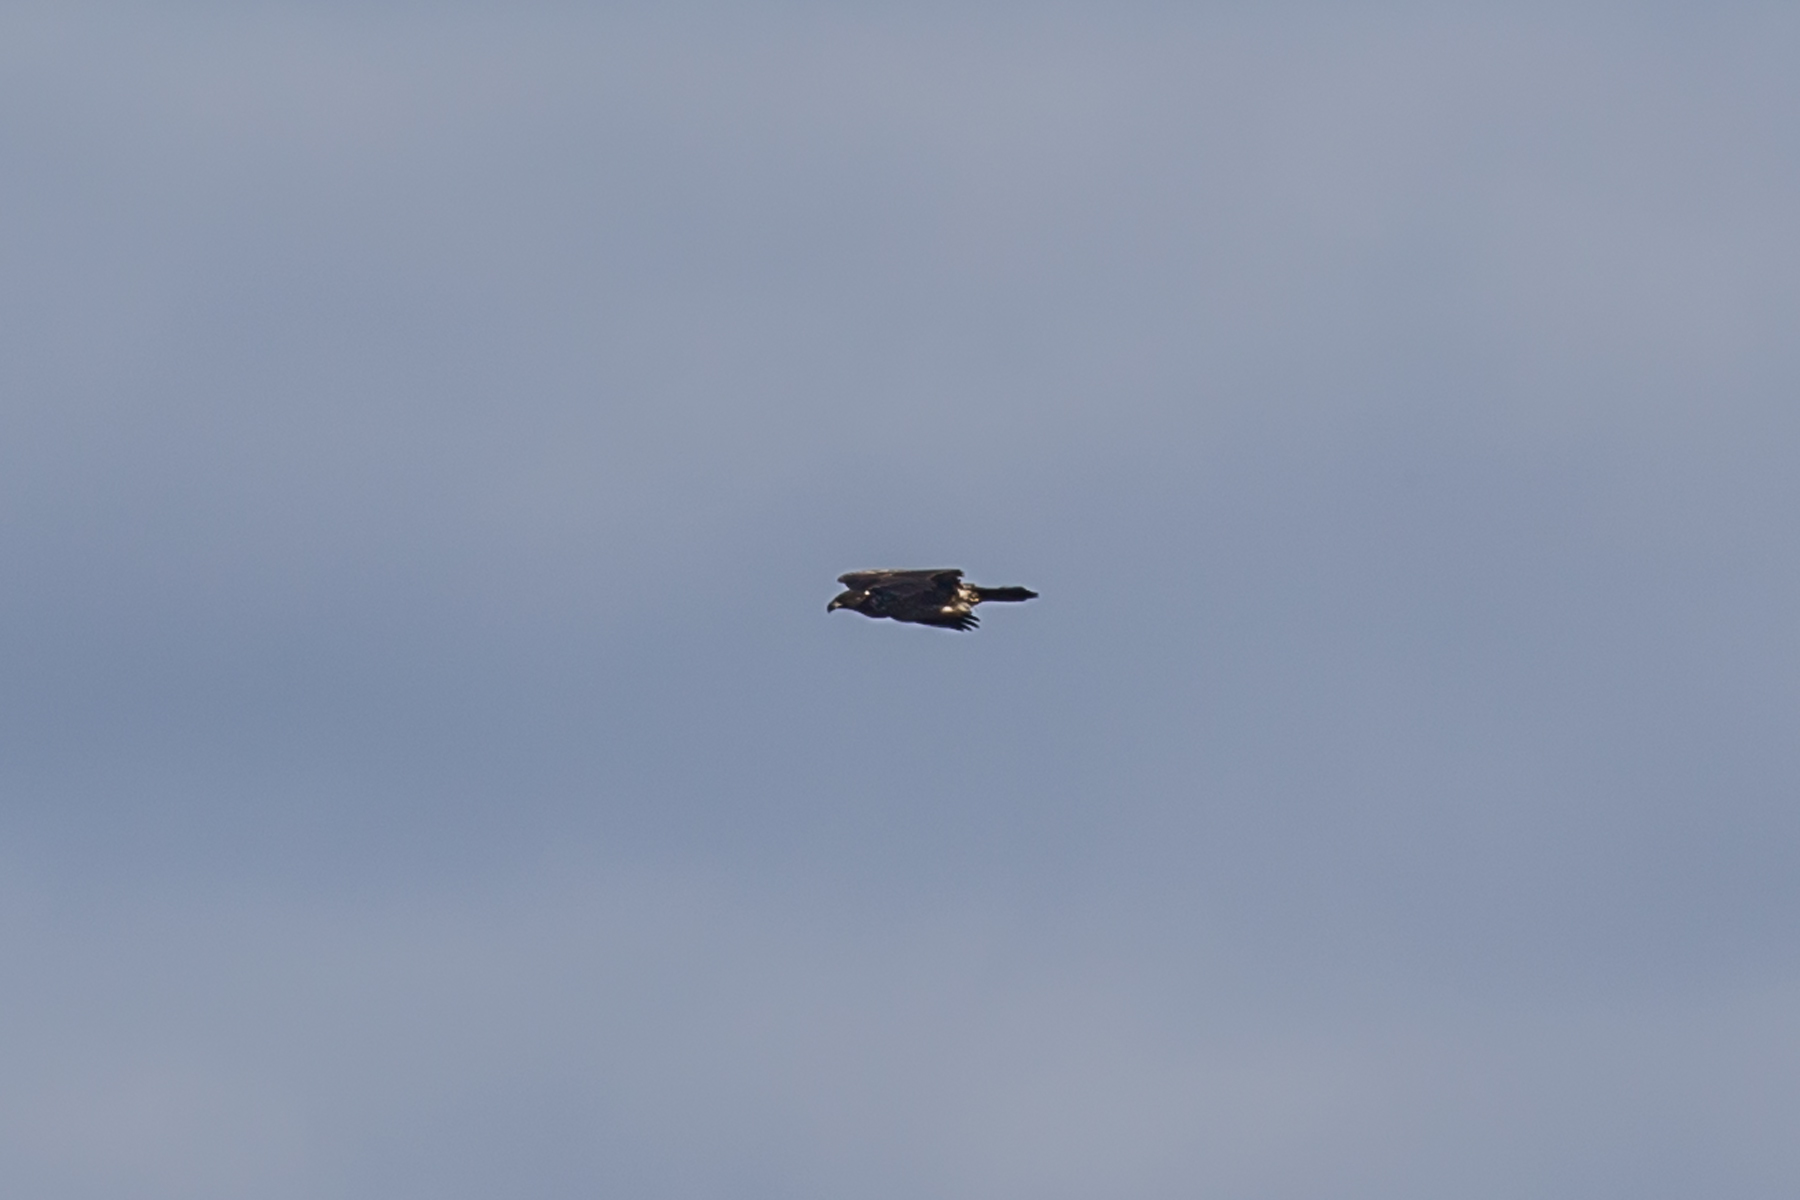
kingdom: Animalia
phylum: Chordata
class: Aves
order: Accipitriformes
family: Accipitridae
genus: Haliaeetus
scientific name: Haliaeetus leucocephalus
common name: Bald eagle
